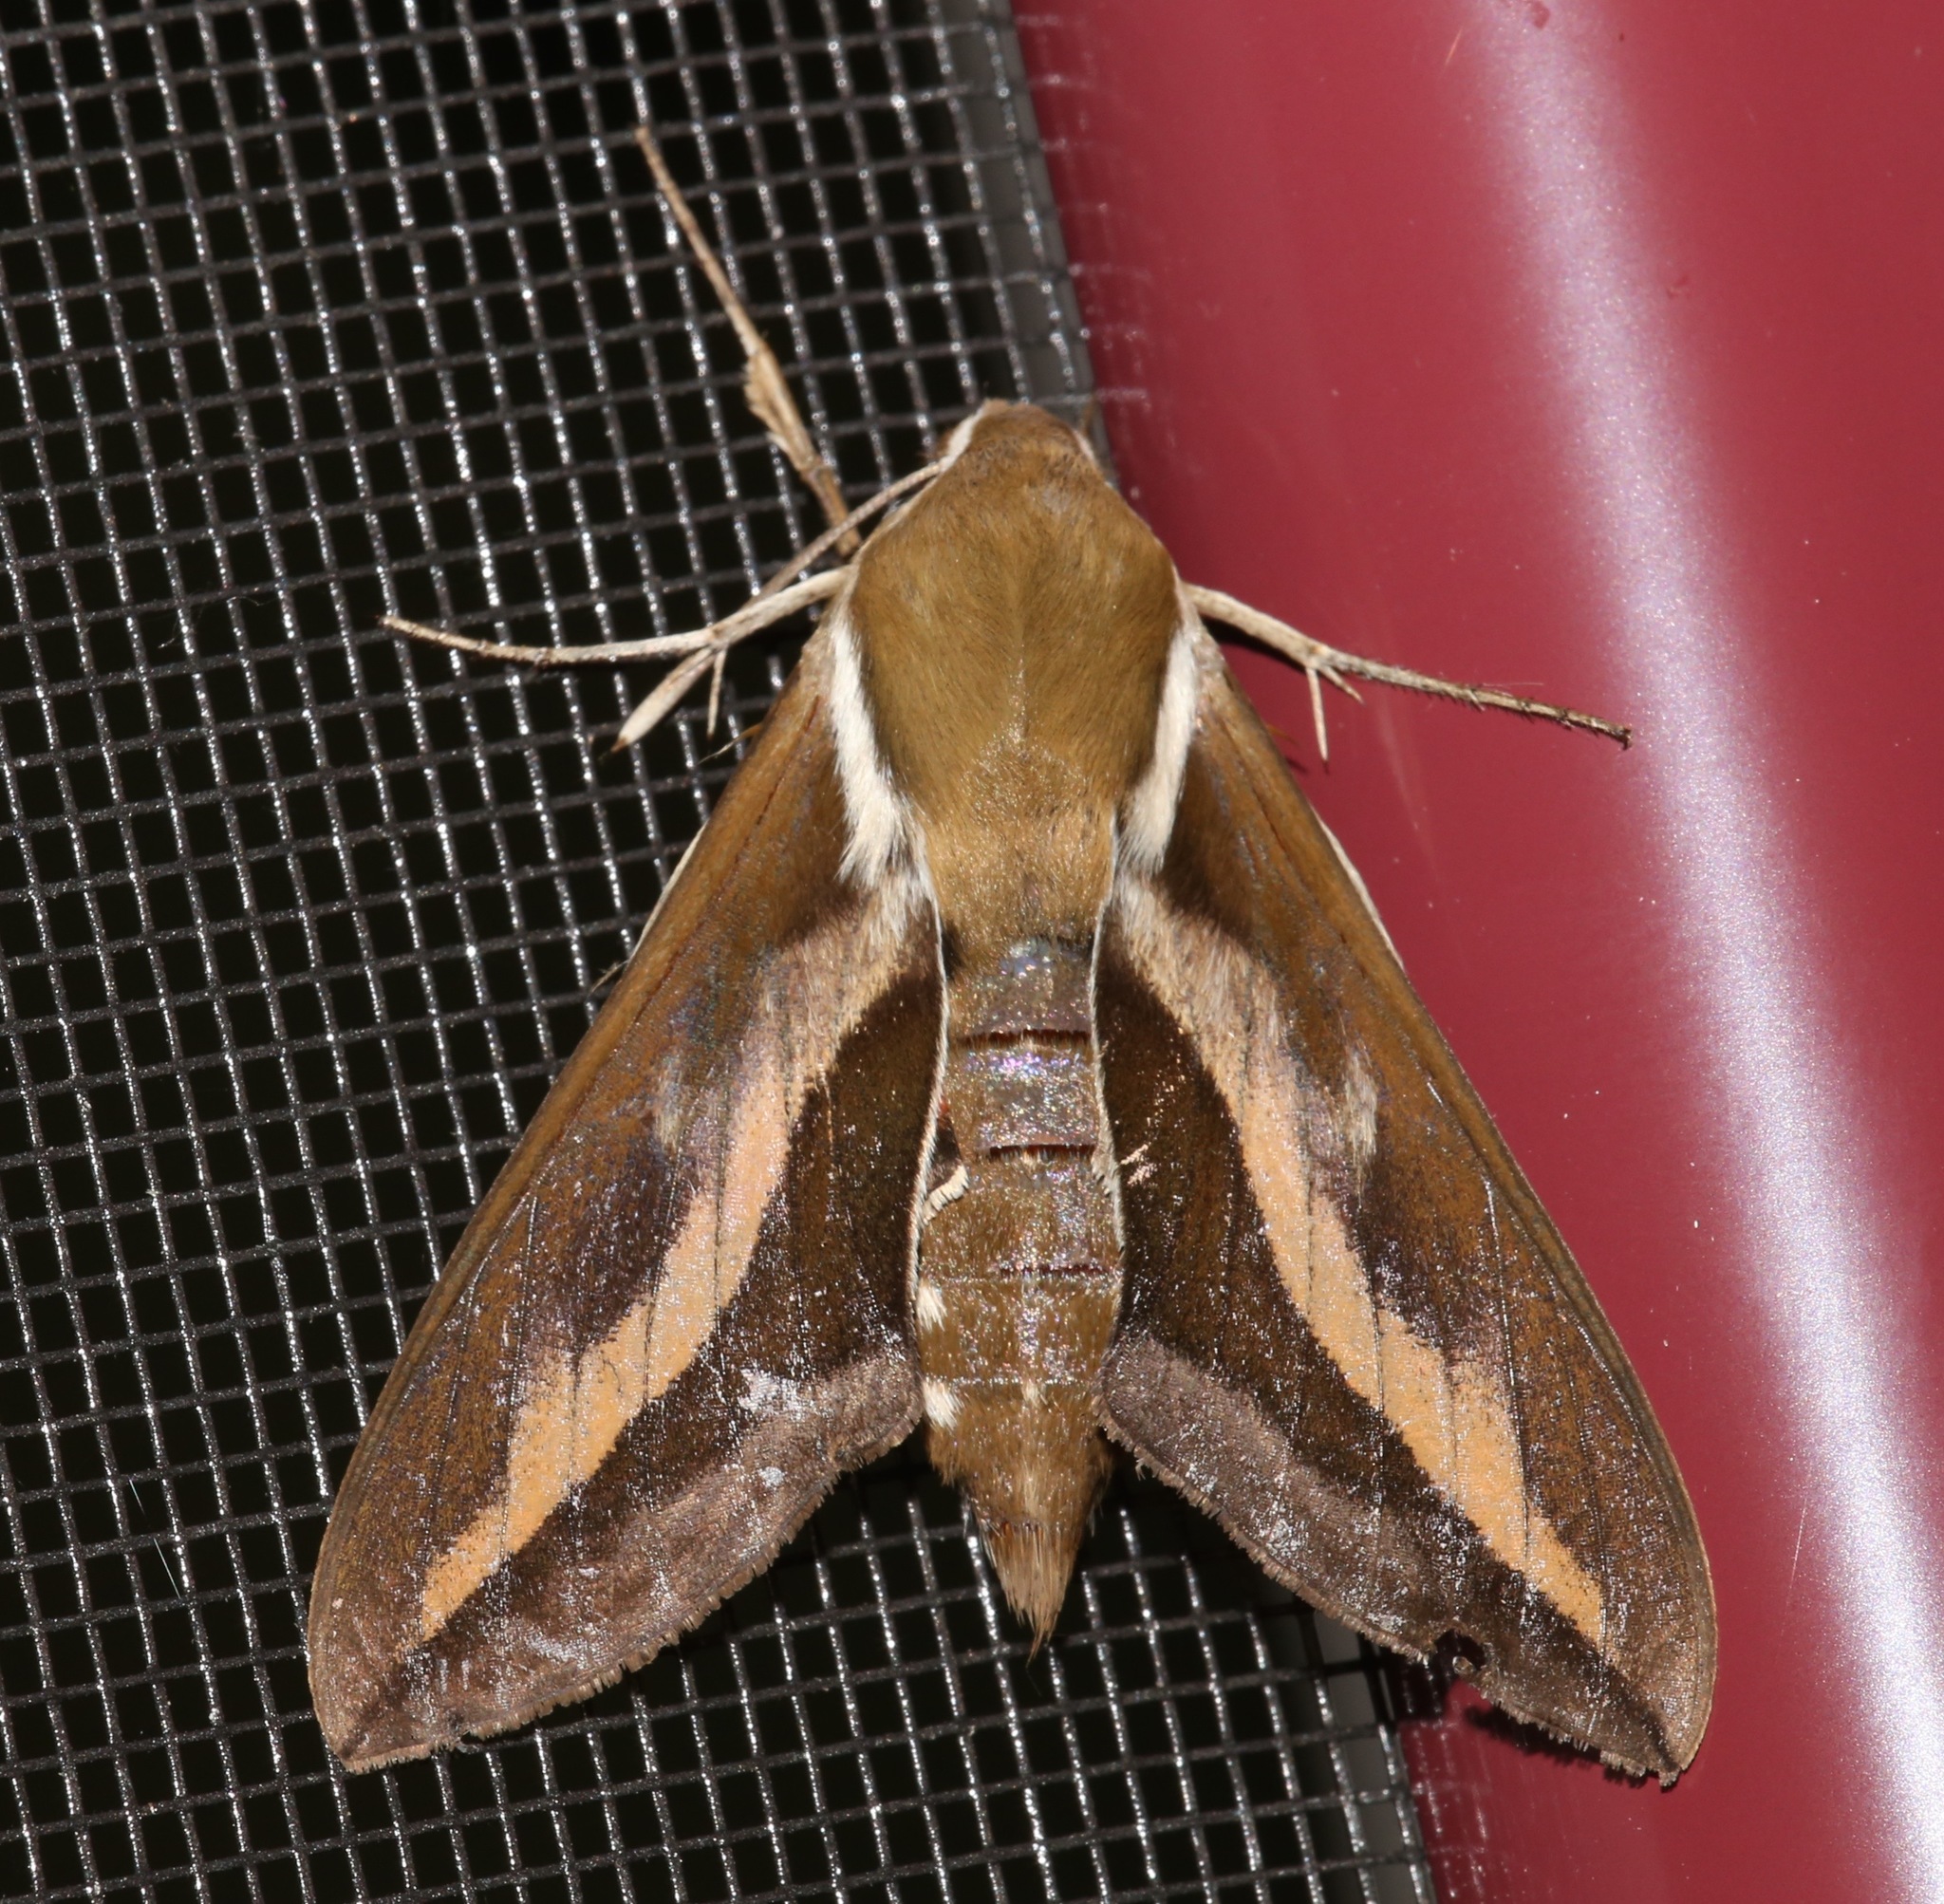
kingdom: Animalia
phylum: Arthropoda
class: Insecta
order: Lepidoptera
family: Sphingidae
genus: Hyles
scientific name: Hyles gallii
